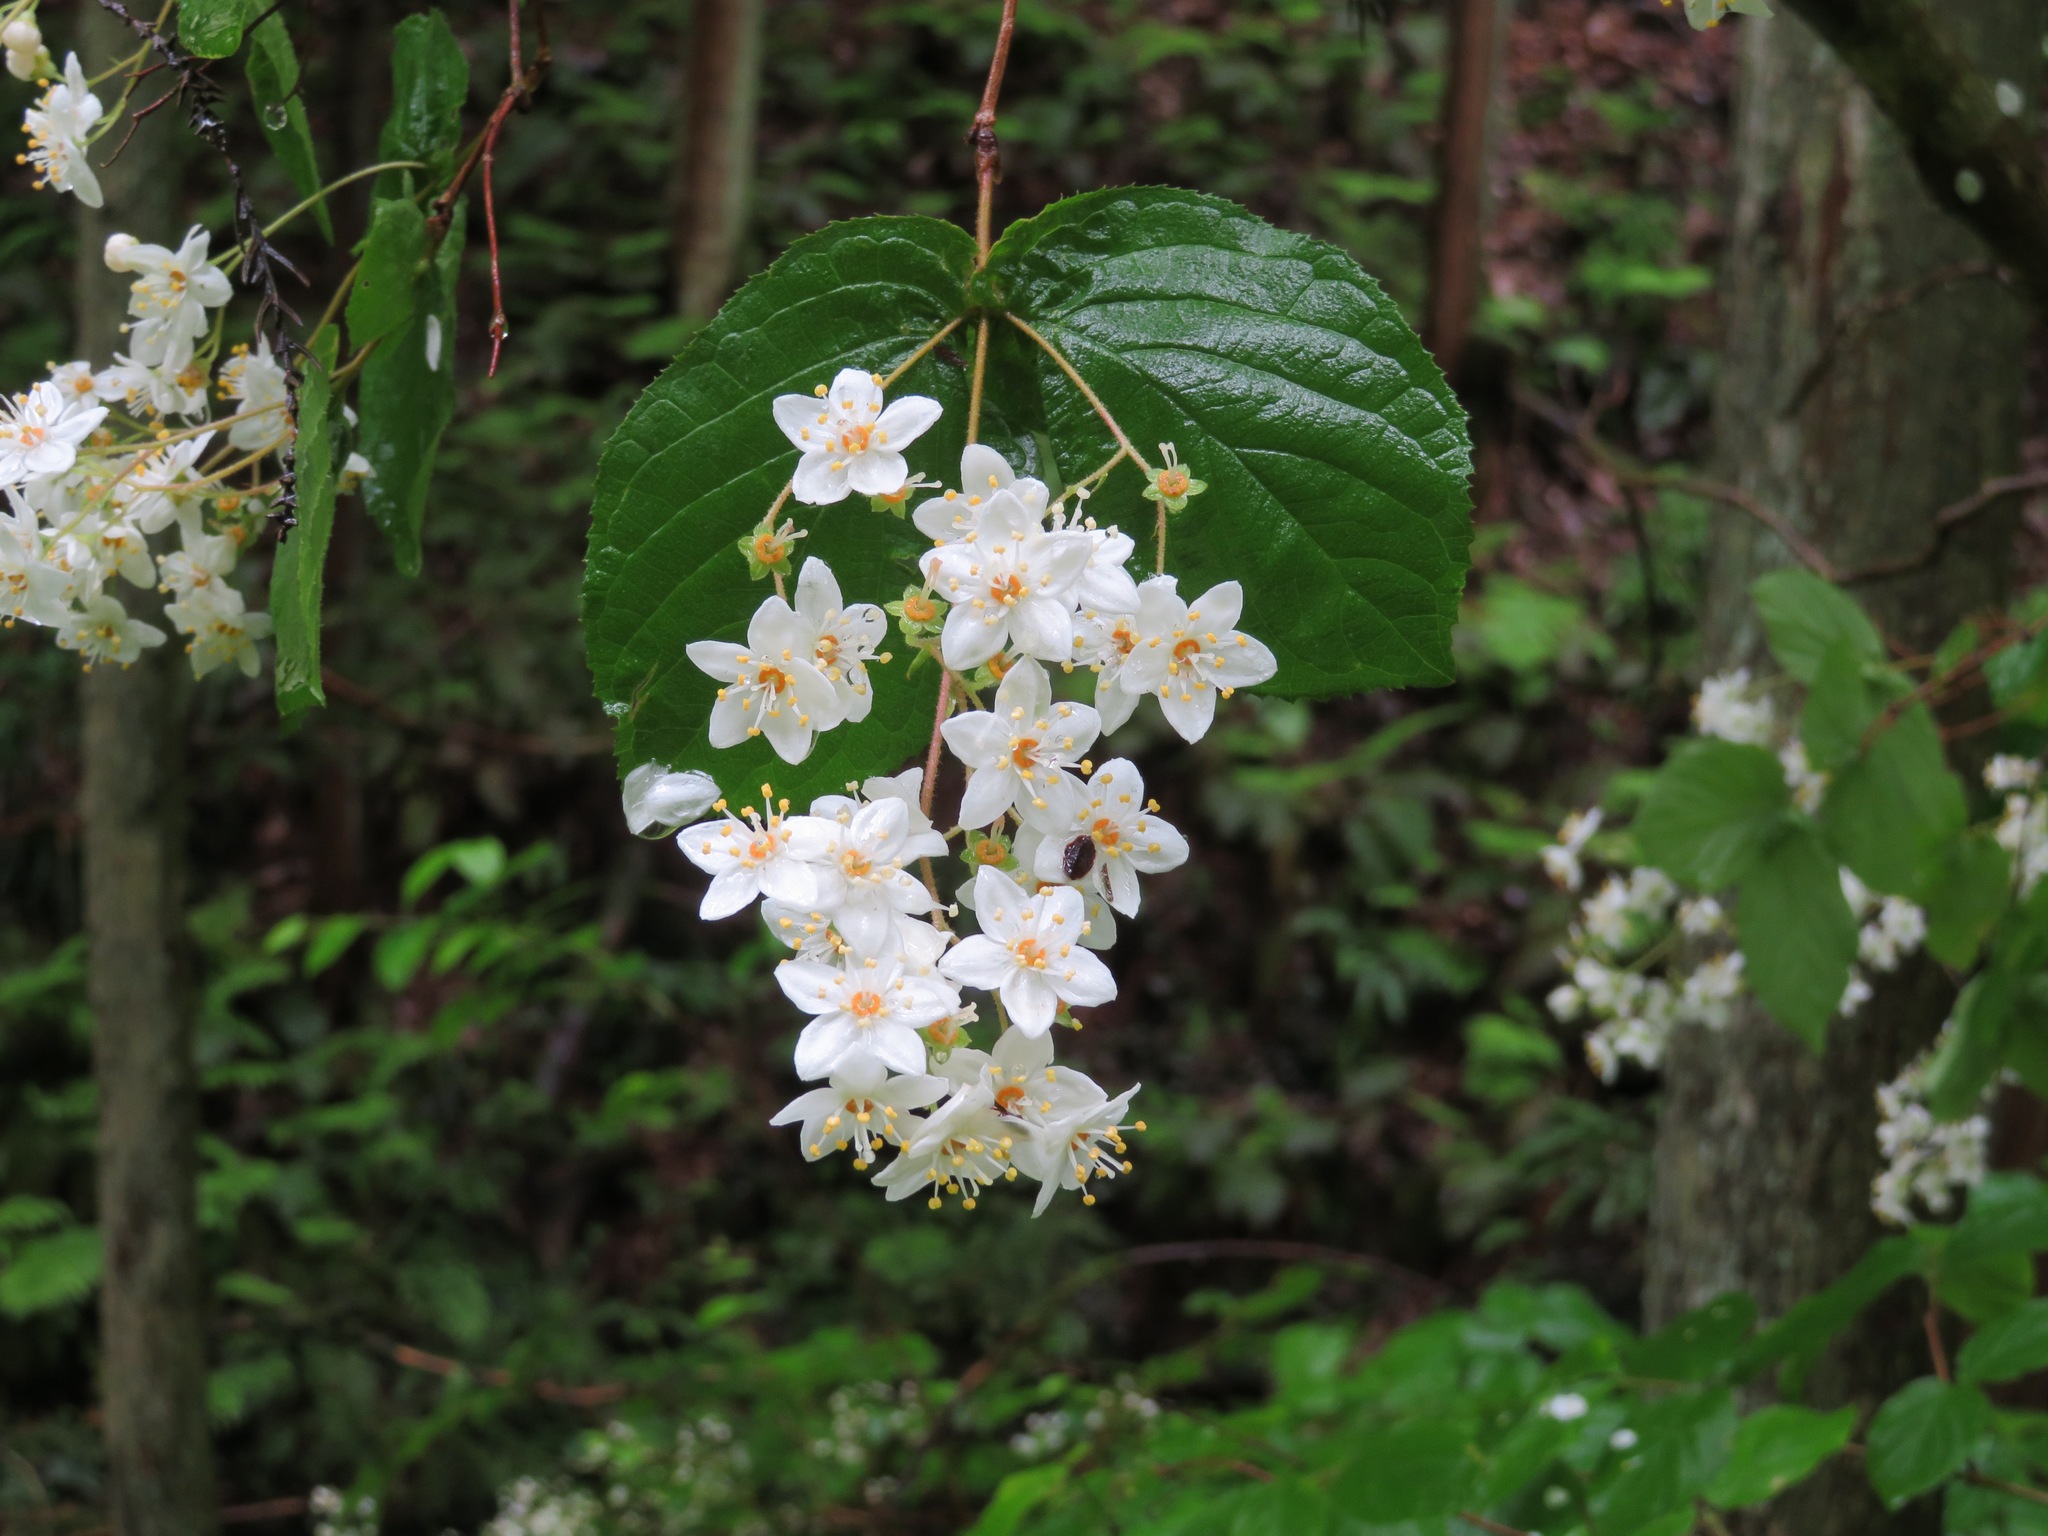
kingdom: Plantae
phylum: Tracheophyta
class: Magnoliopsida
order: Cornales
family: Hydrangeaceae
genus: Deutzia
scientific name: Deutzia scabra
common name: Deutzia
